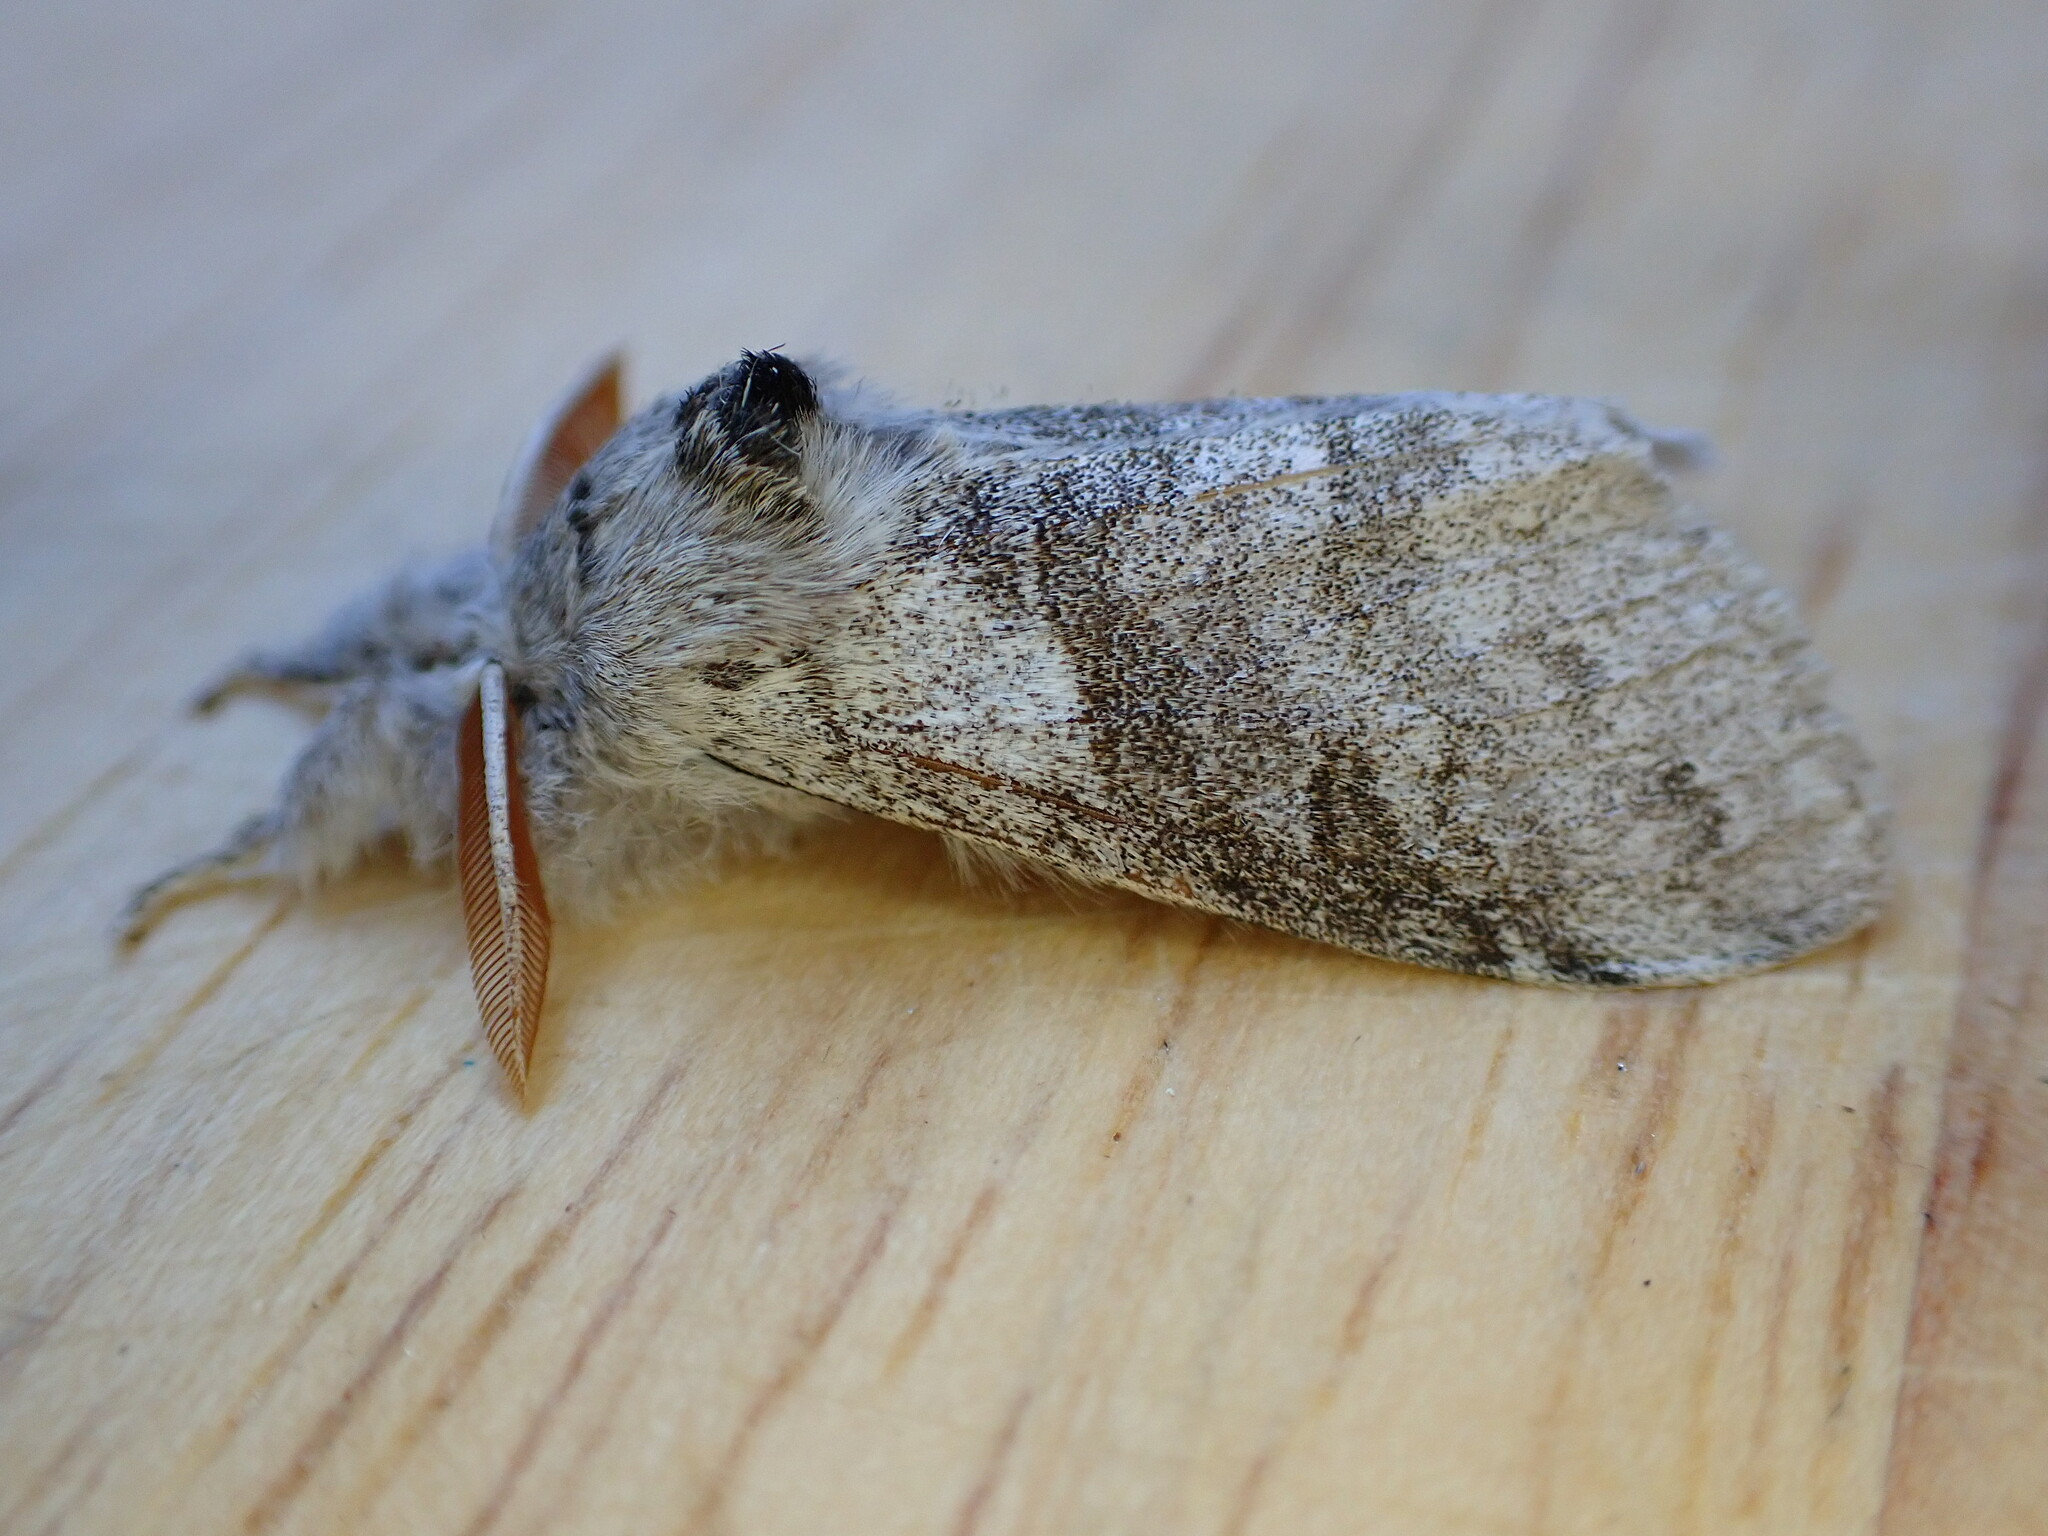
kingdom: Animalia
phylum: Arthropoda
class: Insecta
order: Lepidoptera
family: Erebidae
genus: Calliteara
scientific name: Calliteara pudibunda
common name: Pale tussock
